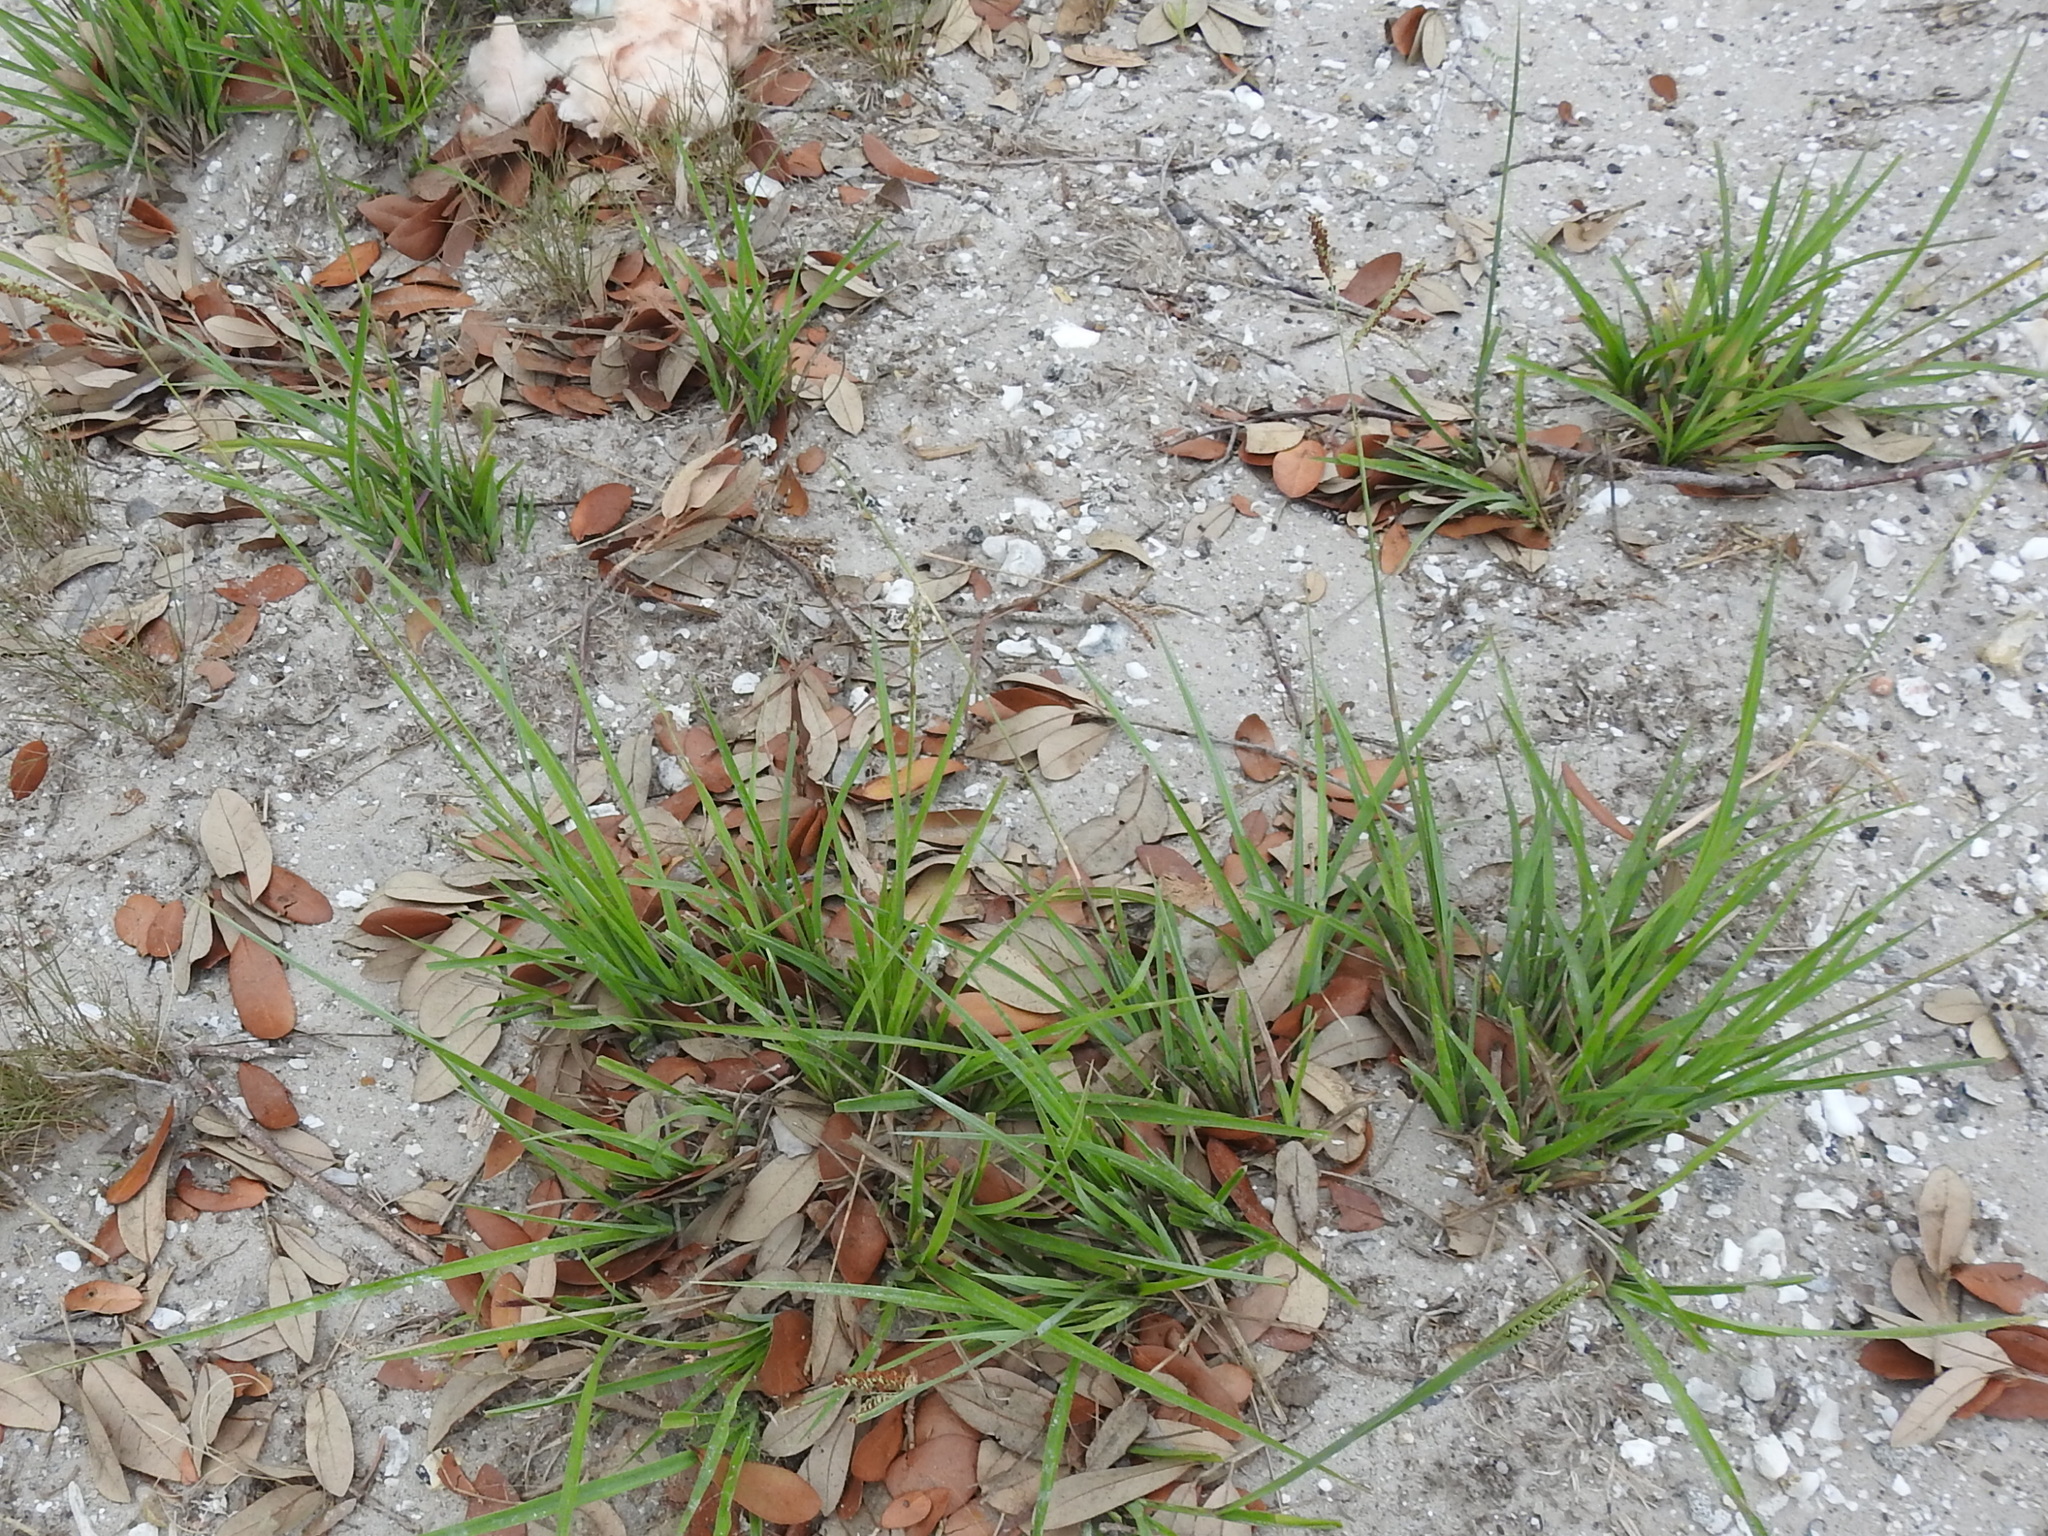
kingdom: Plantae
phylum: Tracheophyta
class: Liliopsida
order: Poales
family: Poaceae
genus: Paspalum
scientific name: Paspalum plicatulum
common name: Top paspalum
